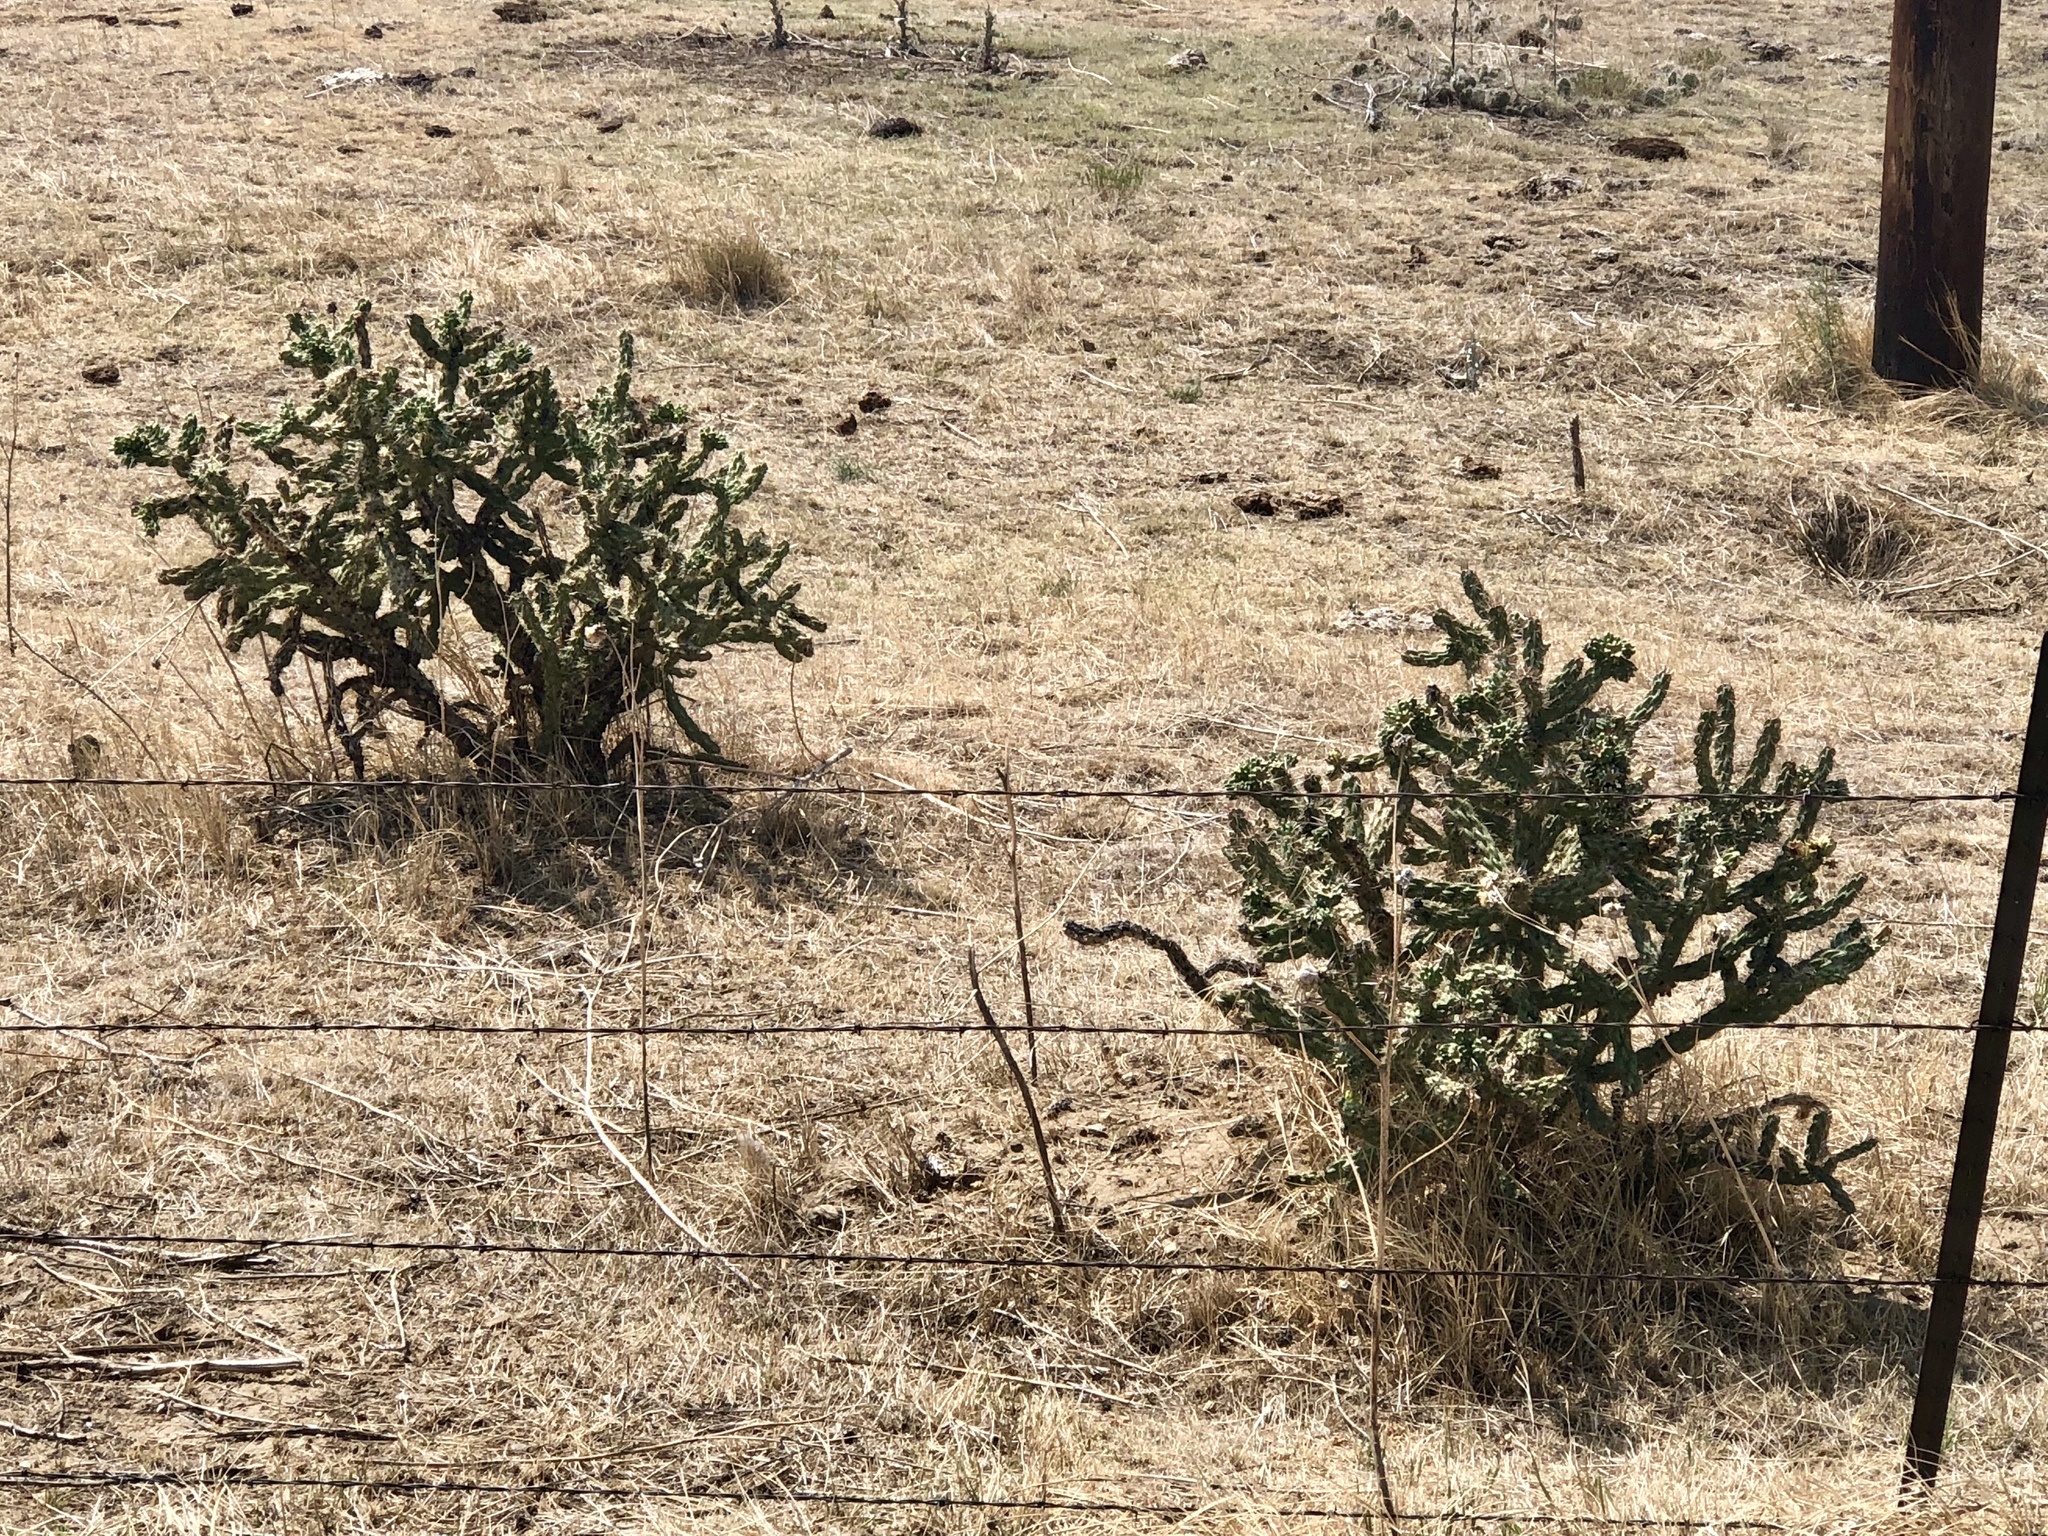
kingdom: Plantae
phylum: Tracheophyta
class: Magnoliopsida
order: Caryophyllales
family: Cactaceae
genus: Cylindropuntia
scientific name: Cylindropuntia imbricata
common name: Candelabrum cactus
